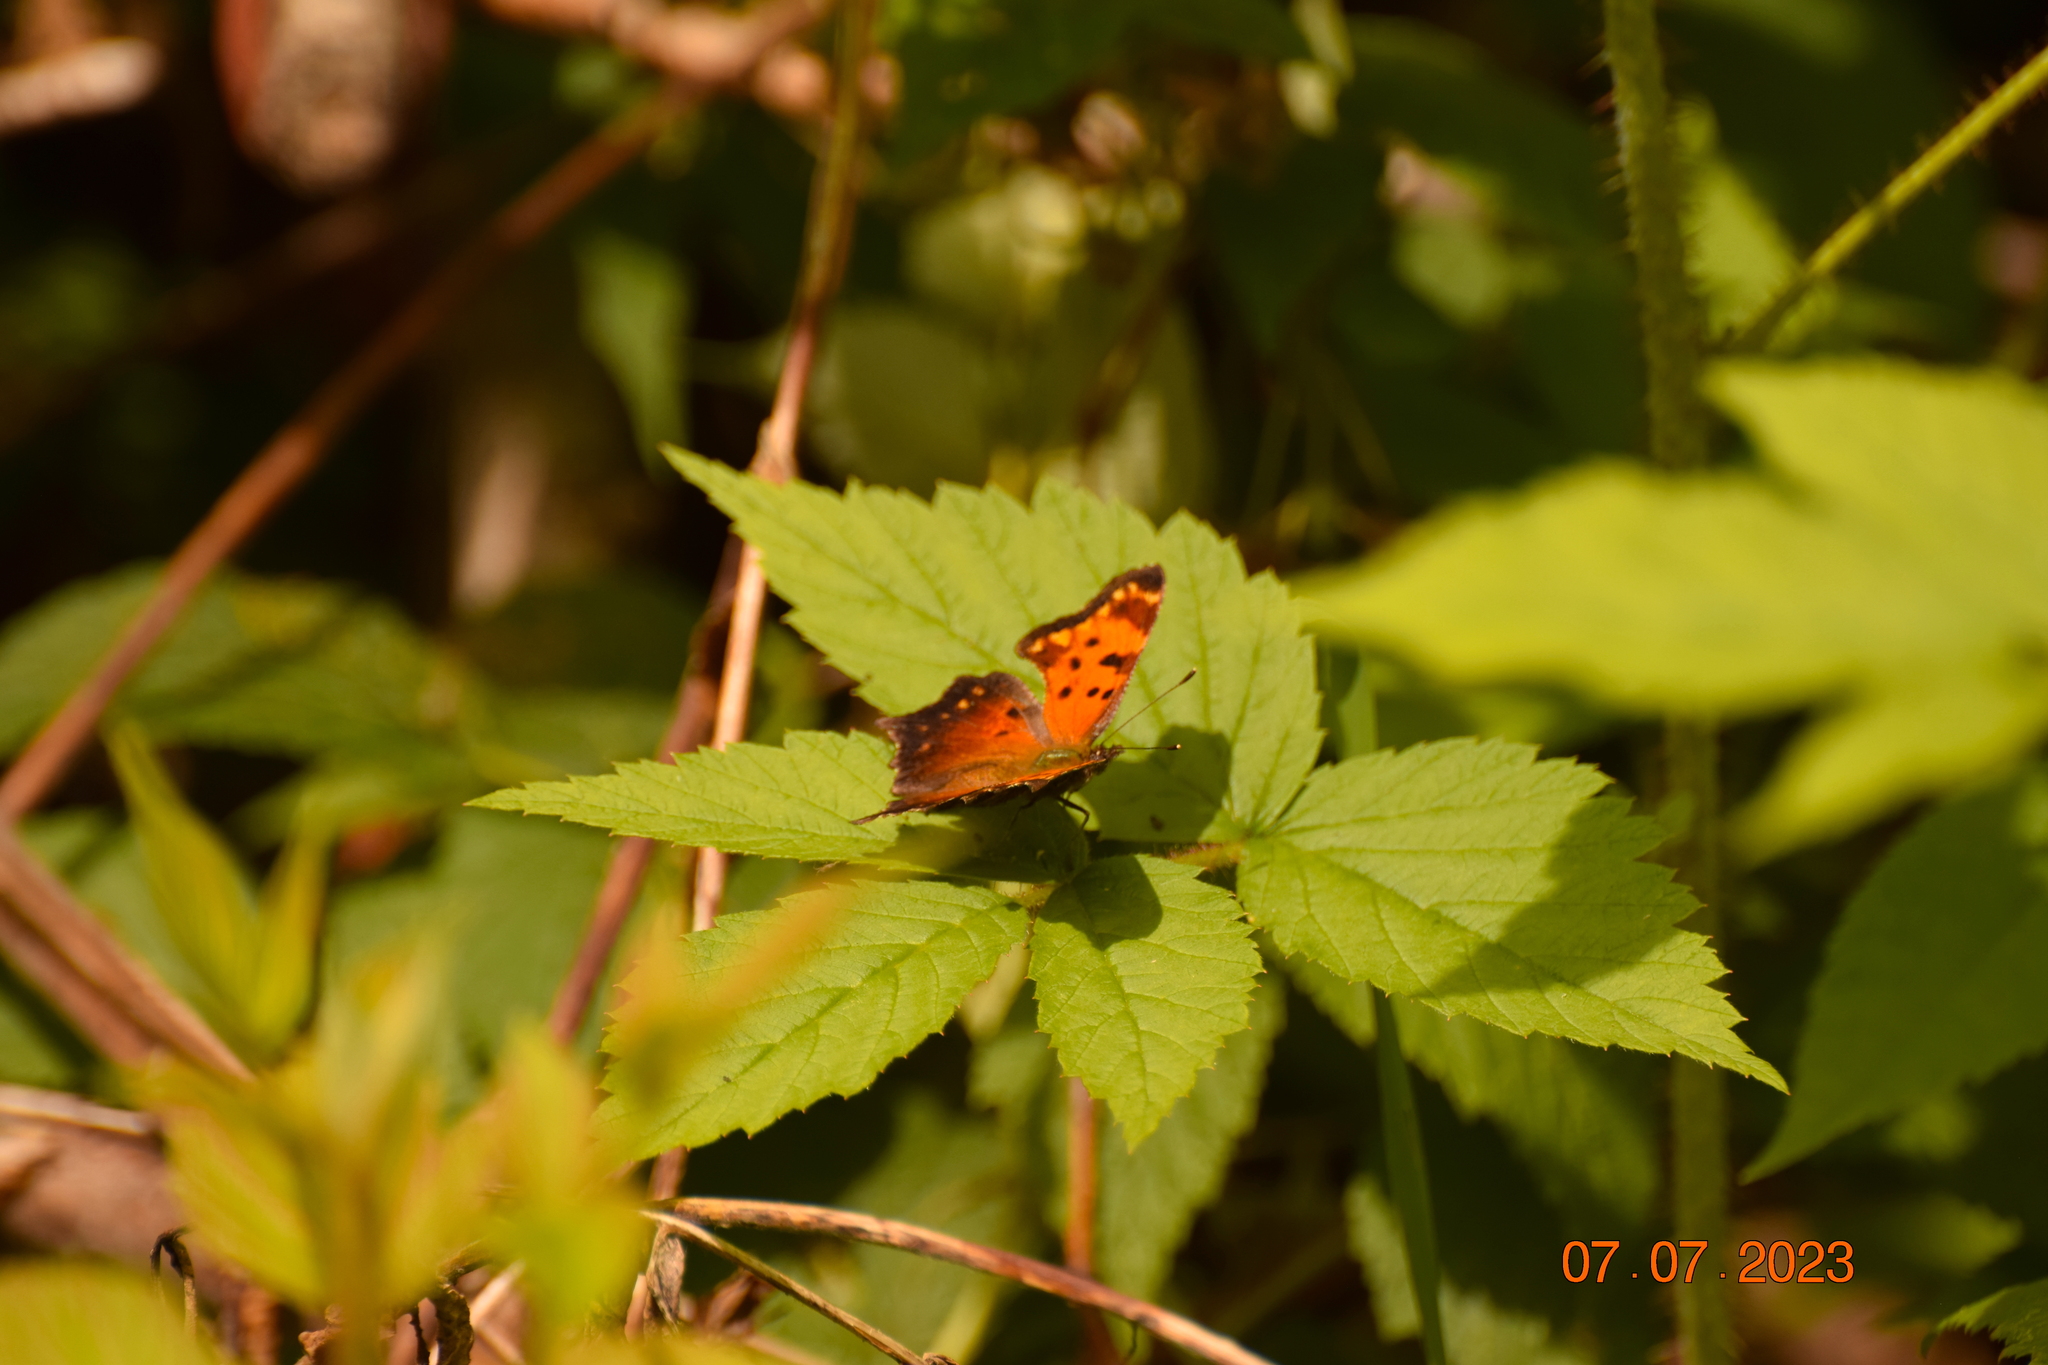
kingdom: Animalia
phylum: Arthropoda
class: Insecta
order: Lepidoptera
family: Nymphalidae
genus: Polygonia
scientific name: Polygonia progne
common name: Gray comma
